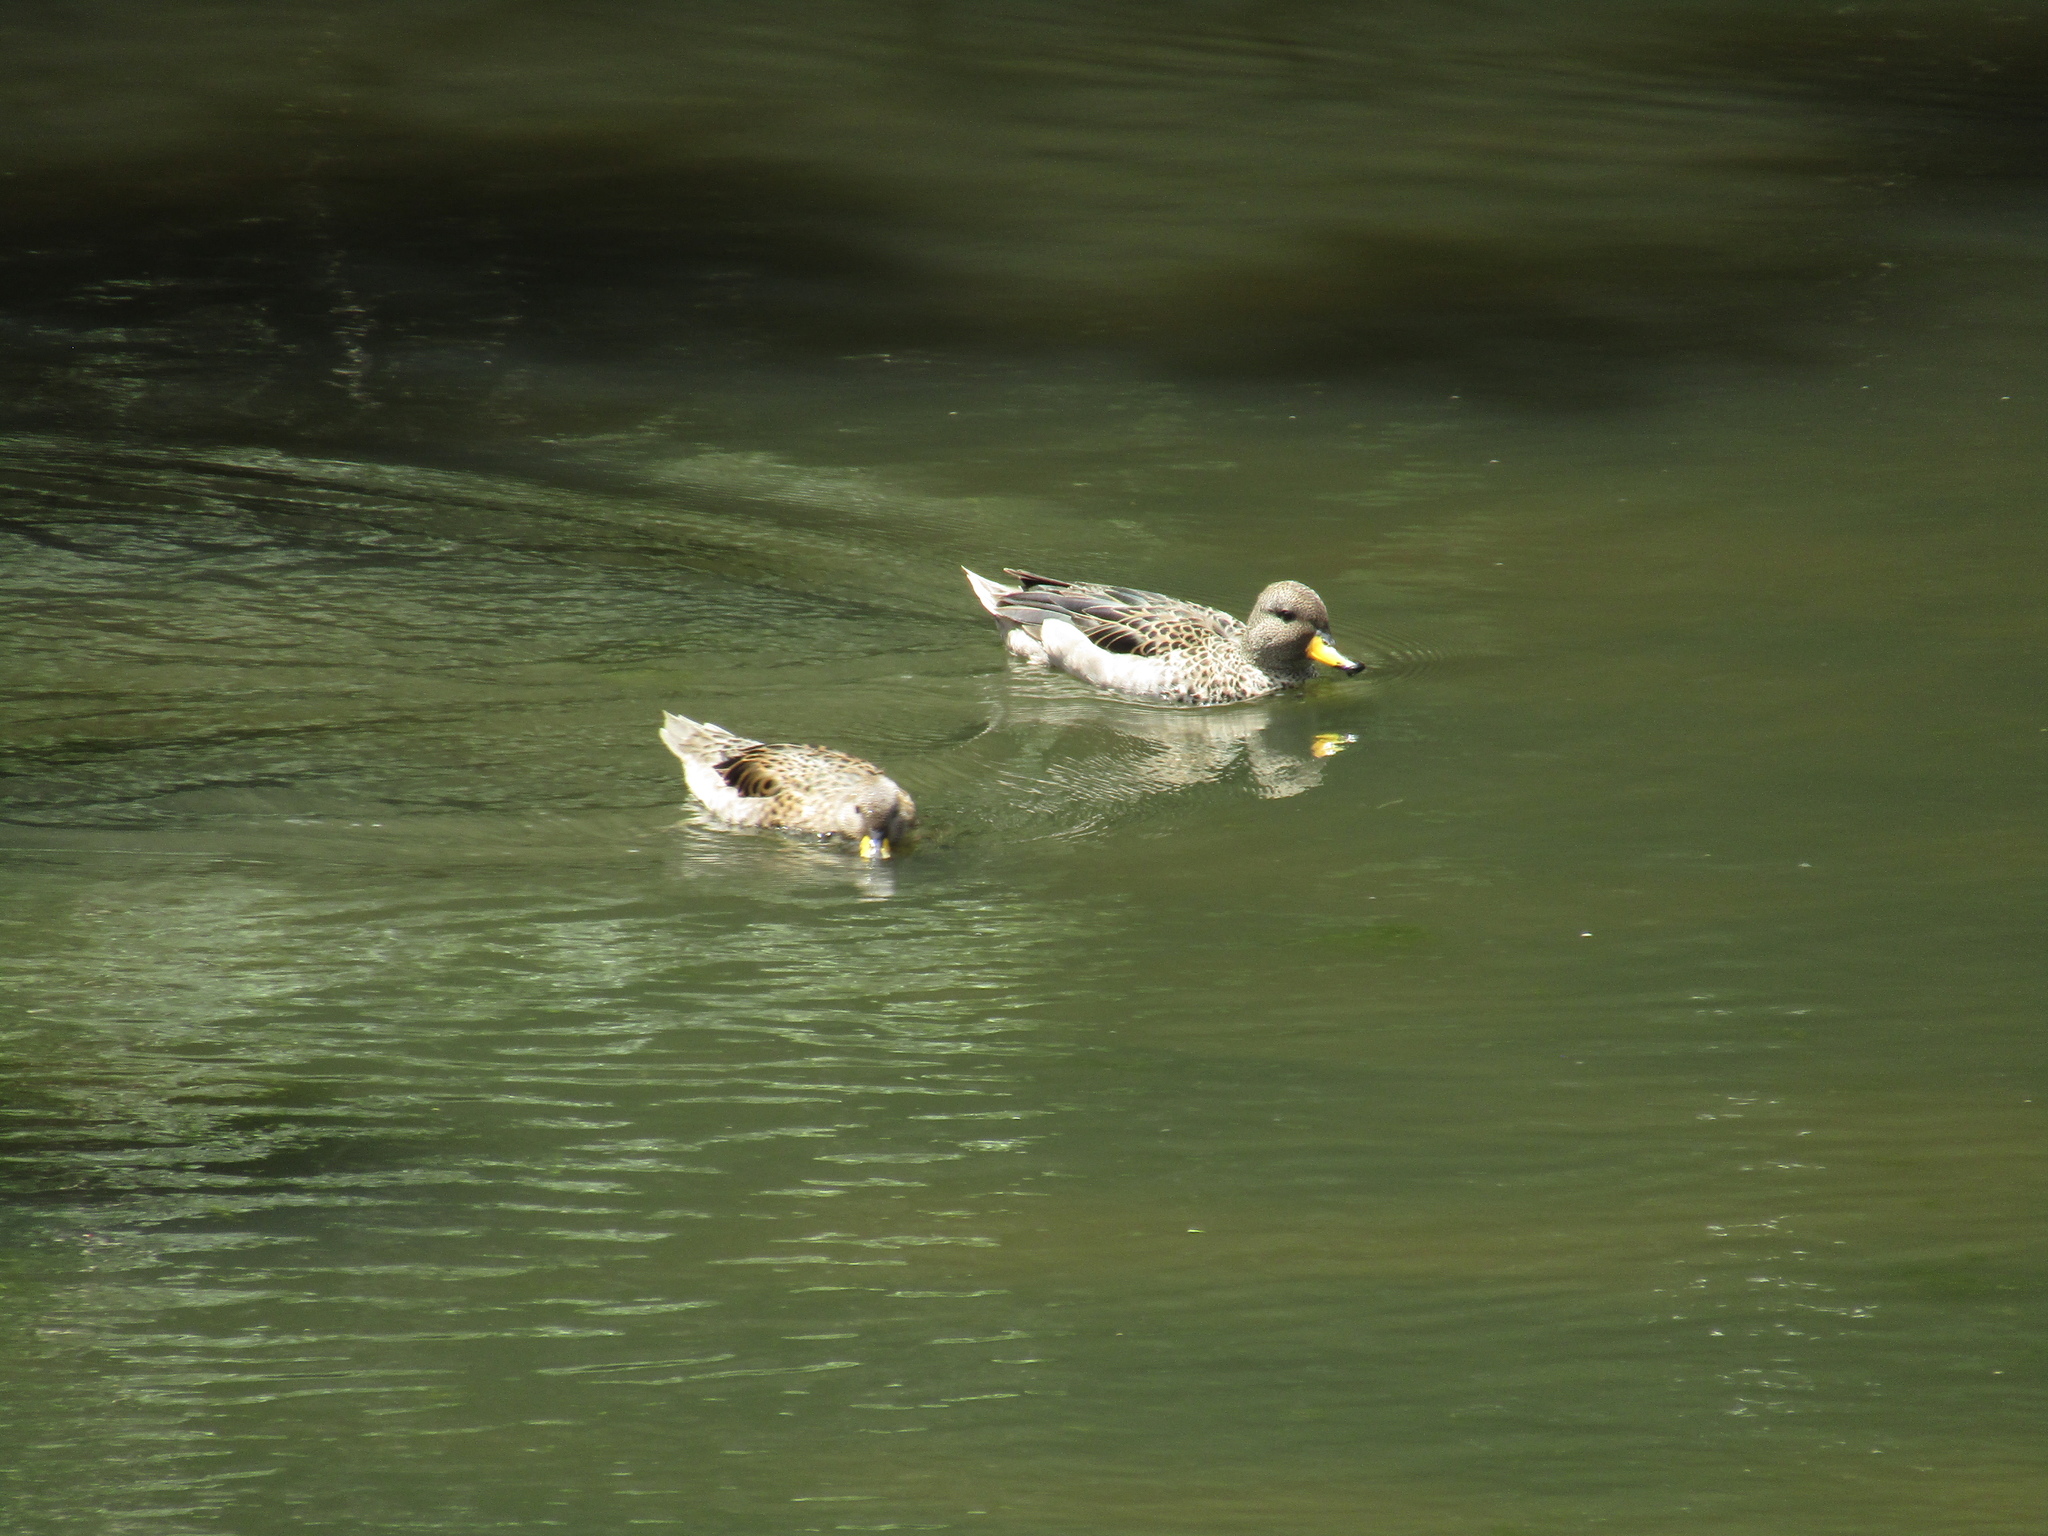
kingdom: Animalia
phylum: Chordata
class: Aves
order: Anseriformes
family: Anatidae
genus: Anas
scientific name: Anas flavirostris
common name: Yellow-billed teal
